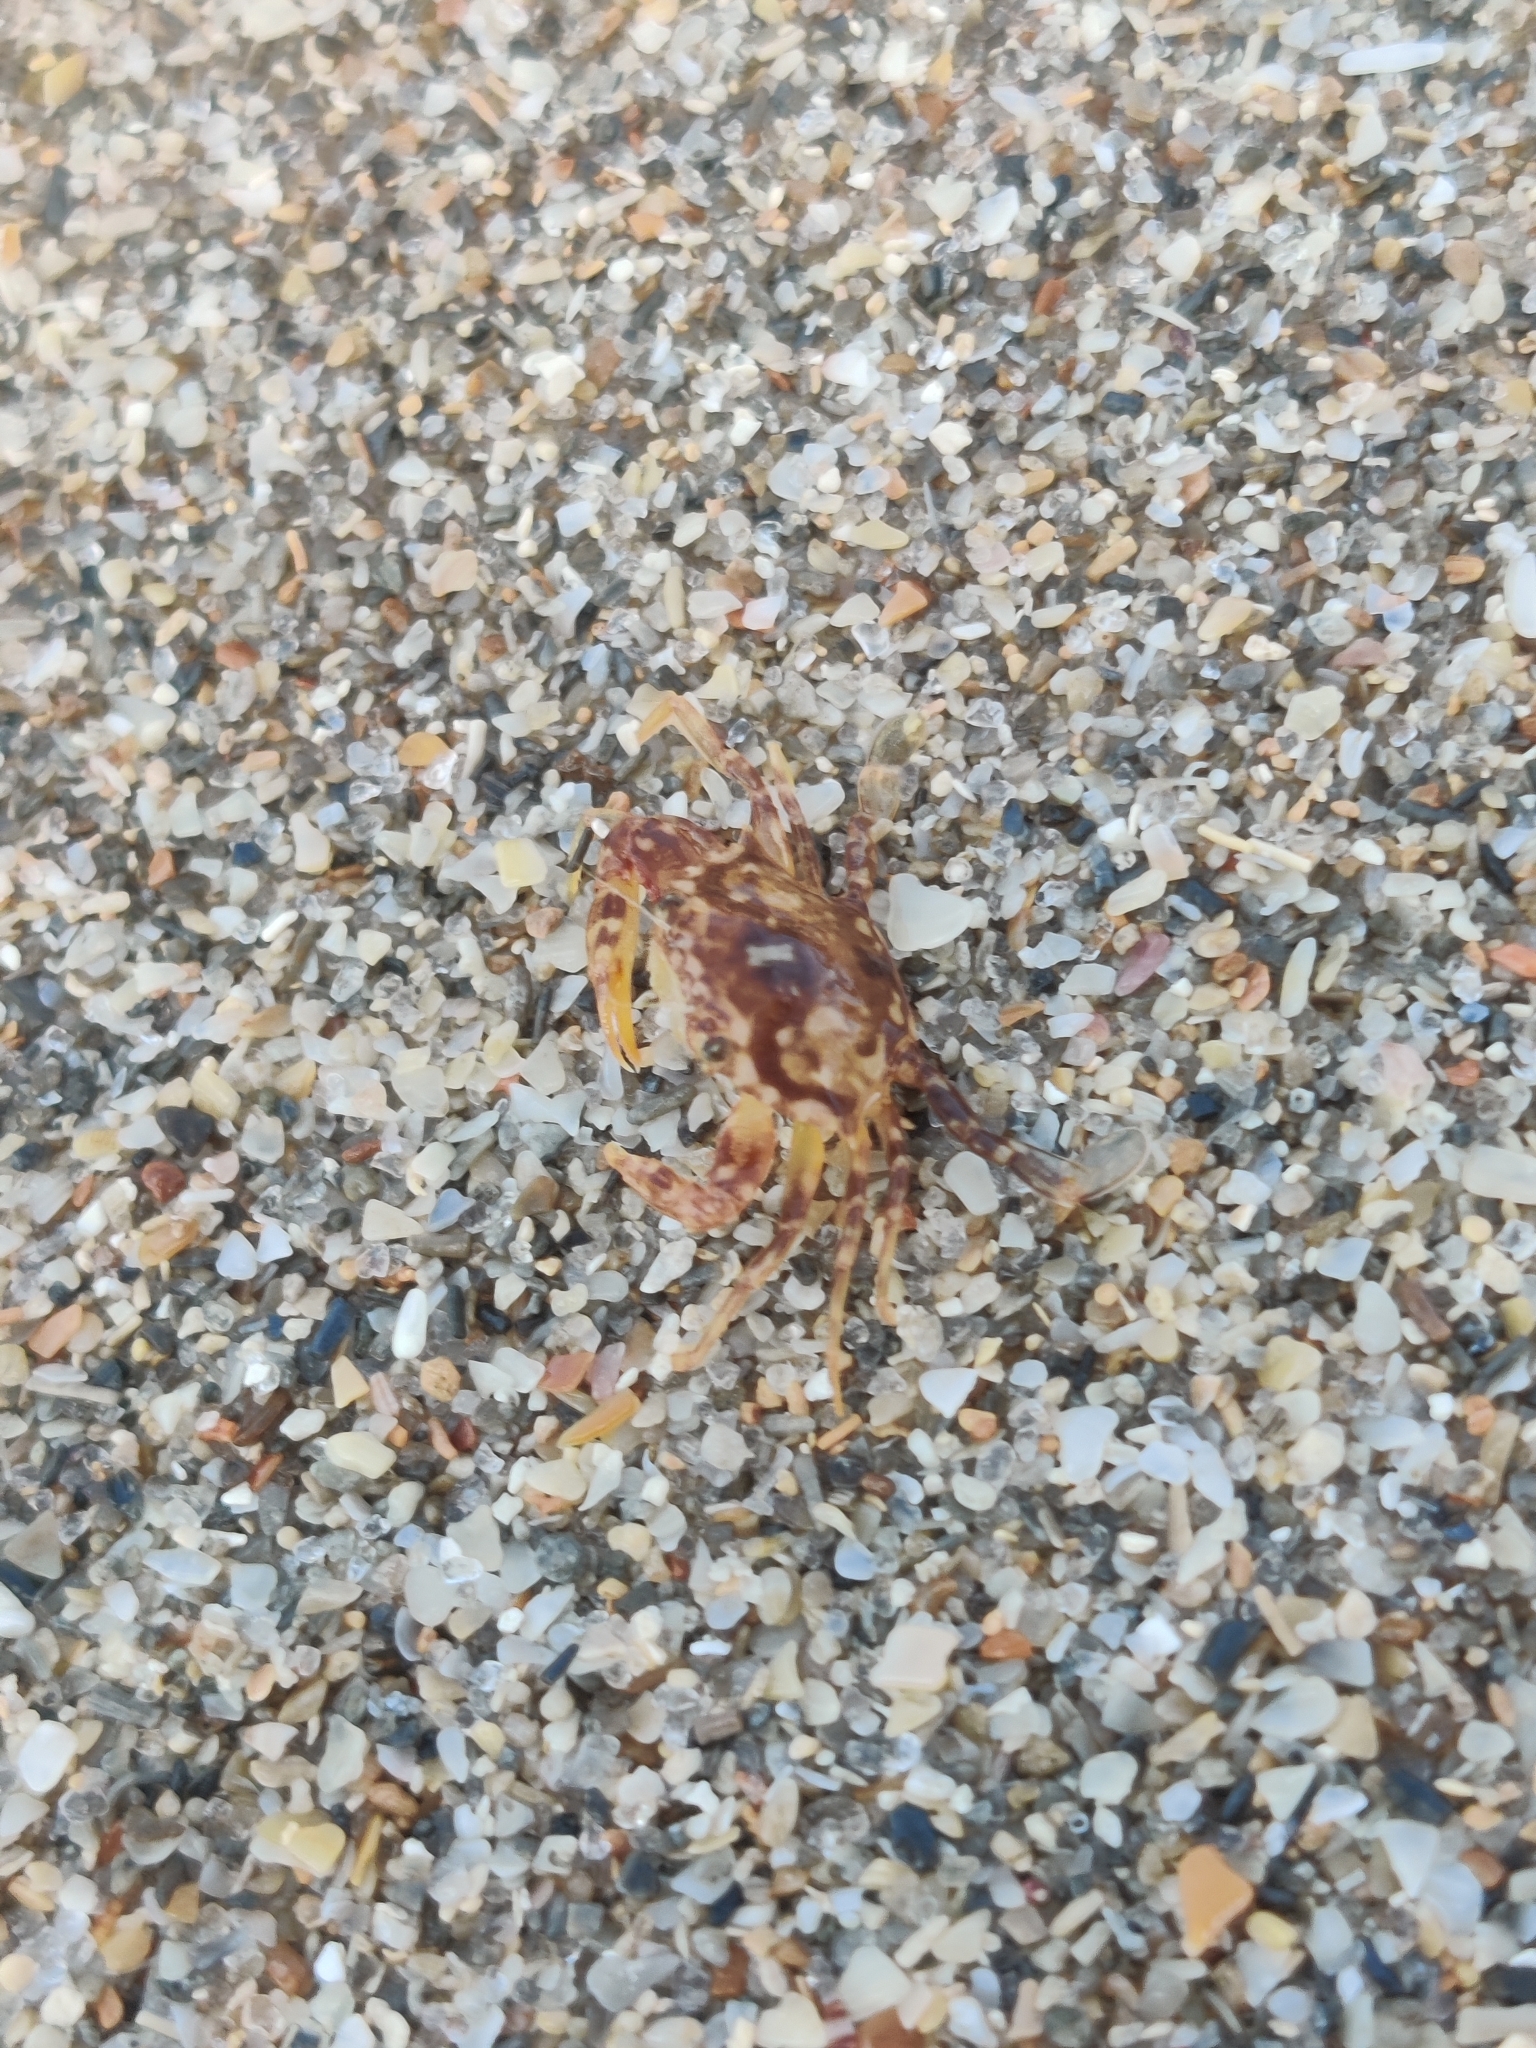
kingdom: Animalia
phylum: Arthropoda
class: Malacostraca
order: Decapoda
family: Portunidae
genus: Portunus
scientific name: Portunus sayi
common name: Sargassum crab
